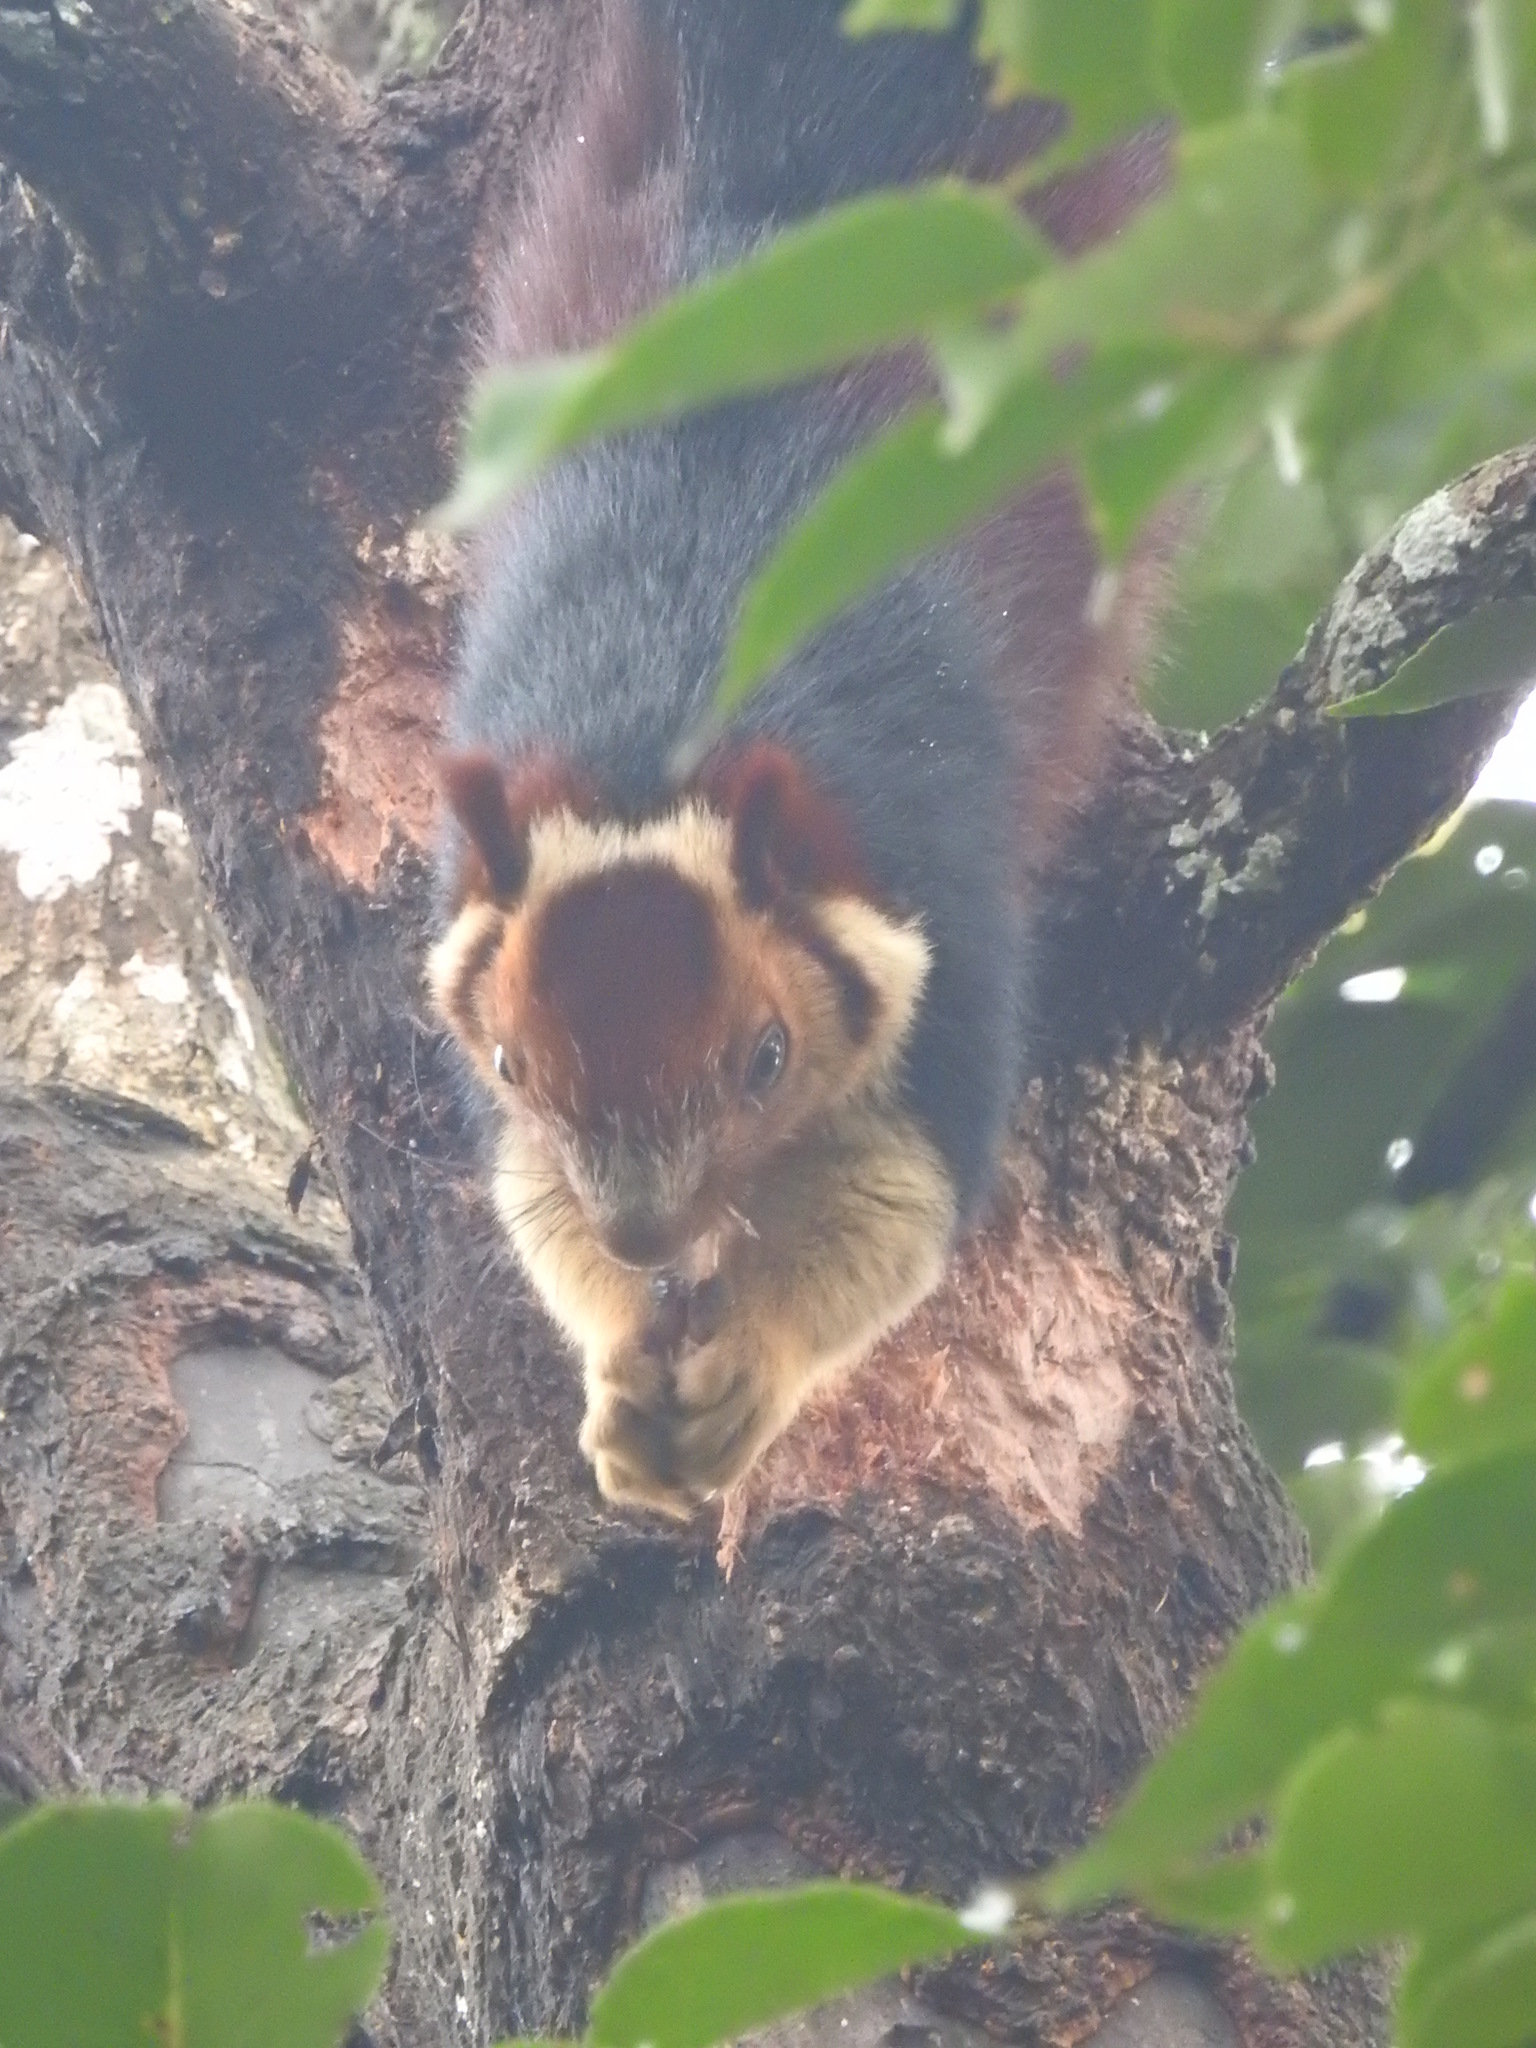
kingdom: Animalia
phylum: Chordata
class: Mammalia
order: Rodentia
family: Sciuridae
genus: Ratufa
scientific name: Ratufa indica
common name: Indian giant squirrel
